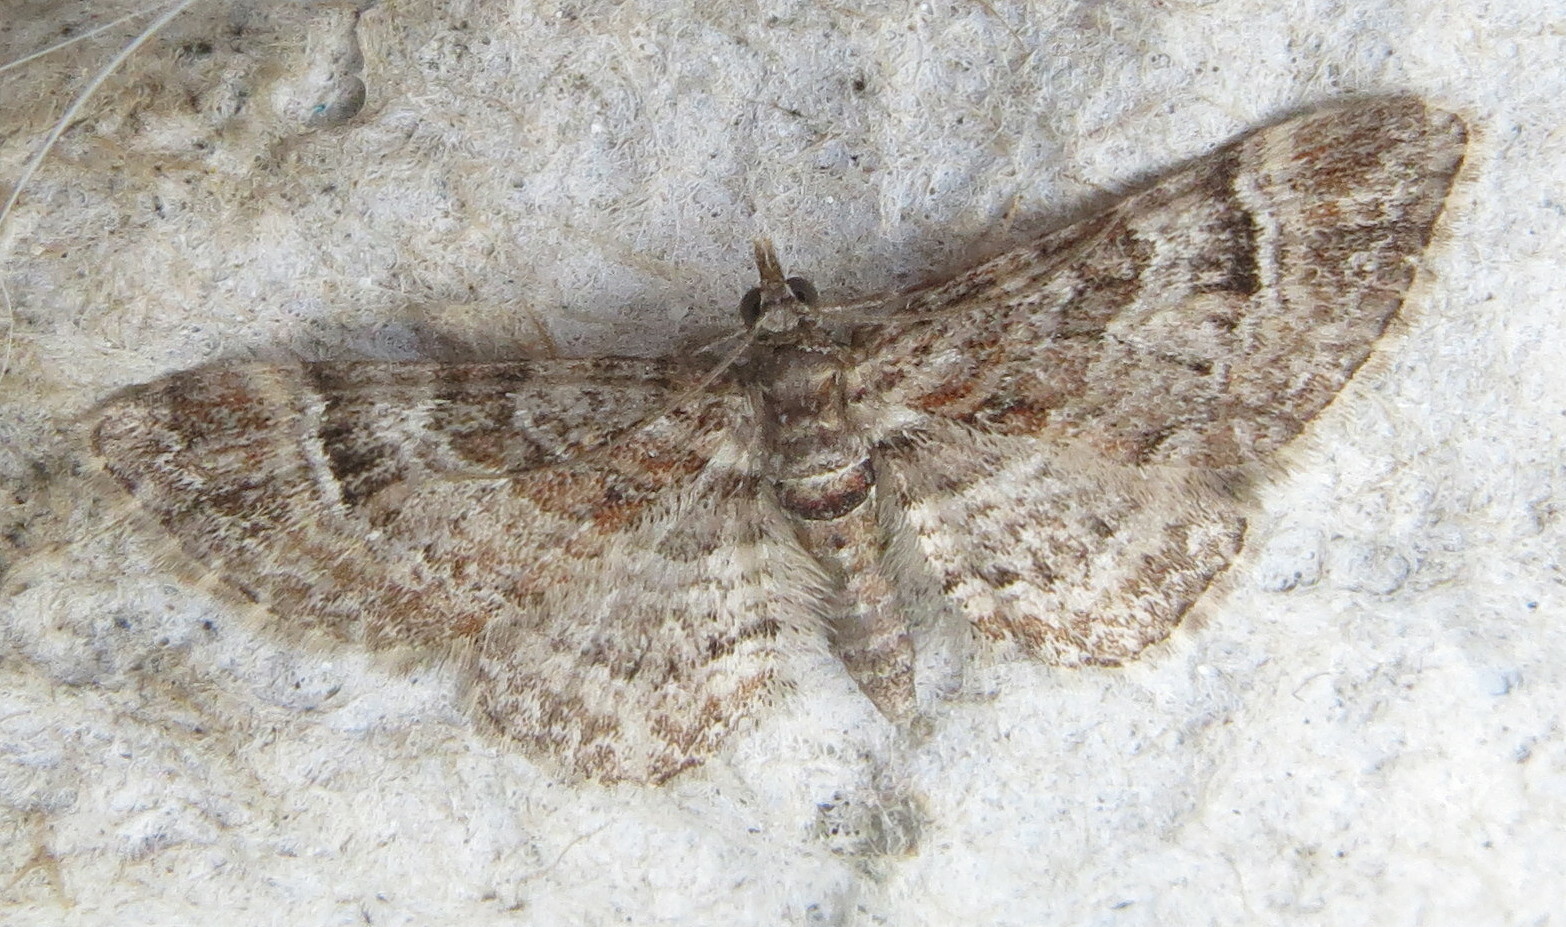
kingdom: Animalia
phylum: Arthropoda
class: Insecta
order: Lepidoptera
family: Geometridae
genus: Gymnoscelis
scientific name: Gymnoscelis rufifasciata
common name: Double-striped pug
